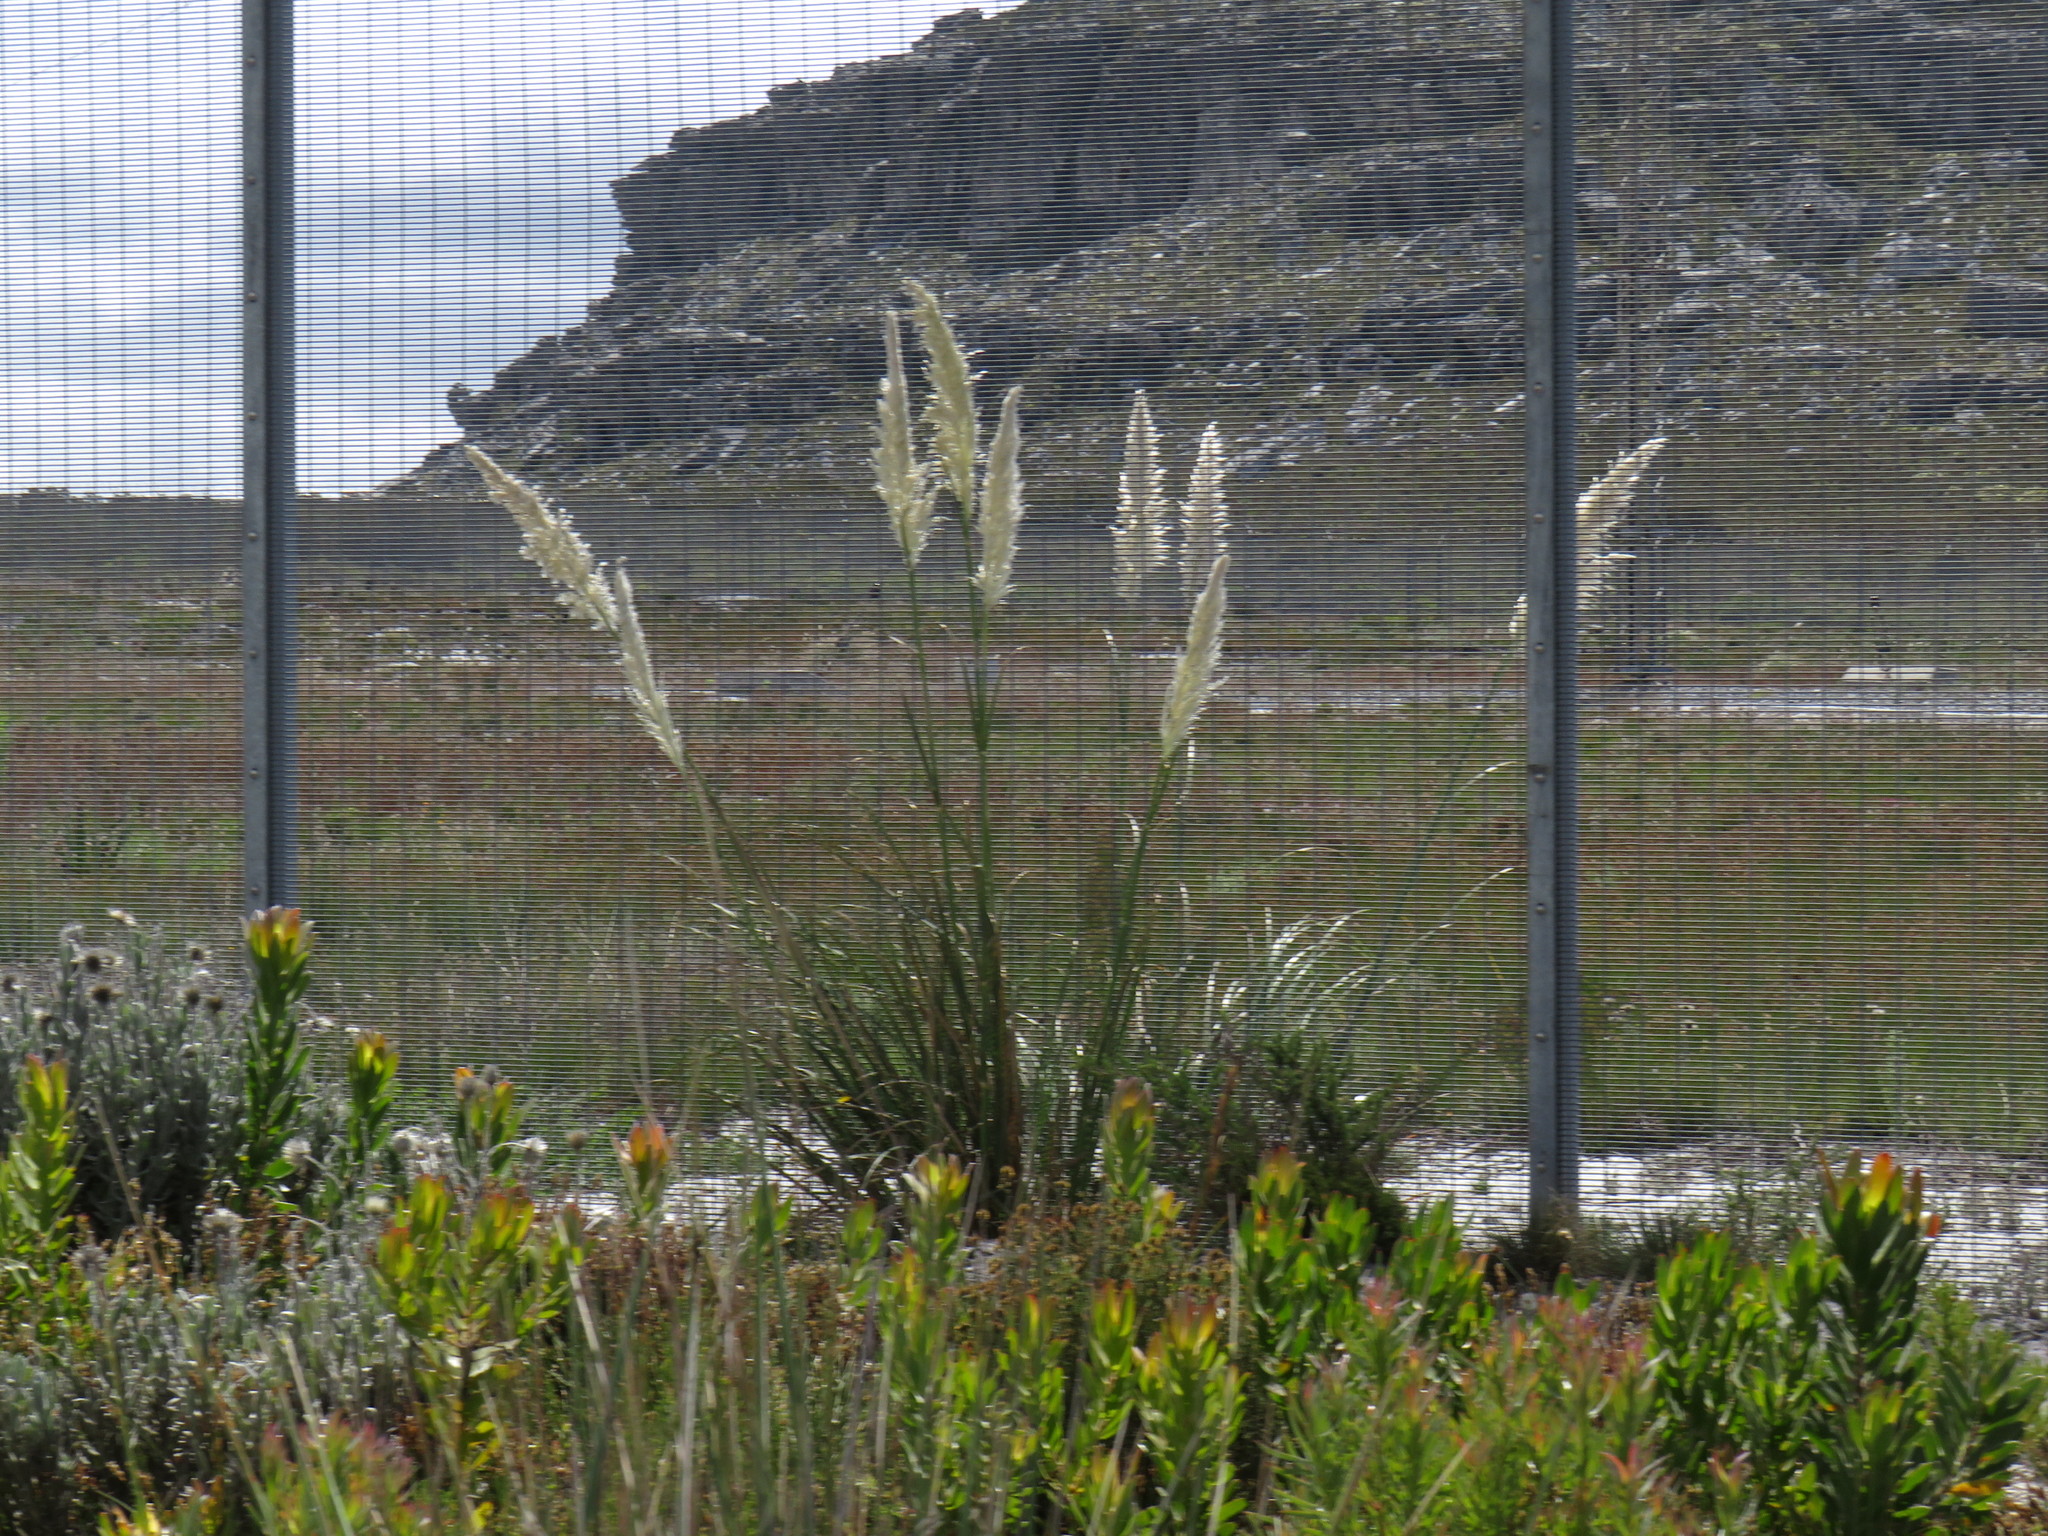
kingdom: Plantae
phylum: Tracheophyta
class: Liliopsida
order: Poales
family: Poaceae
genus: Cortaderia
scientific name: Cortaderia selloana
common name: Uruguayan pampas grass
